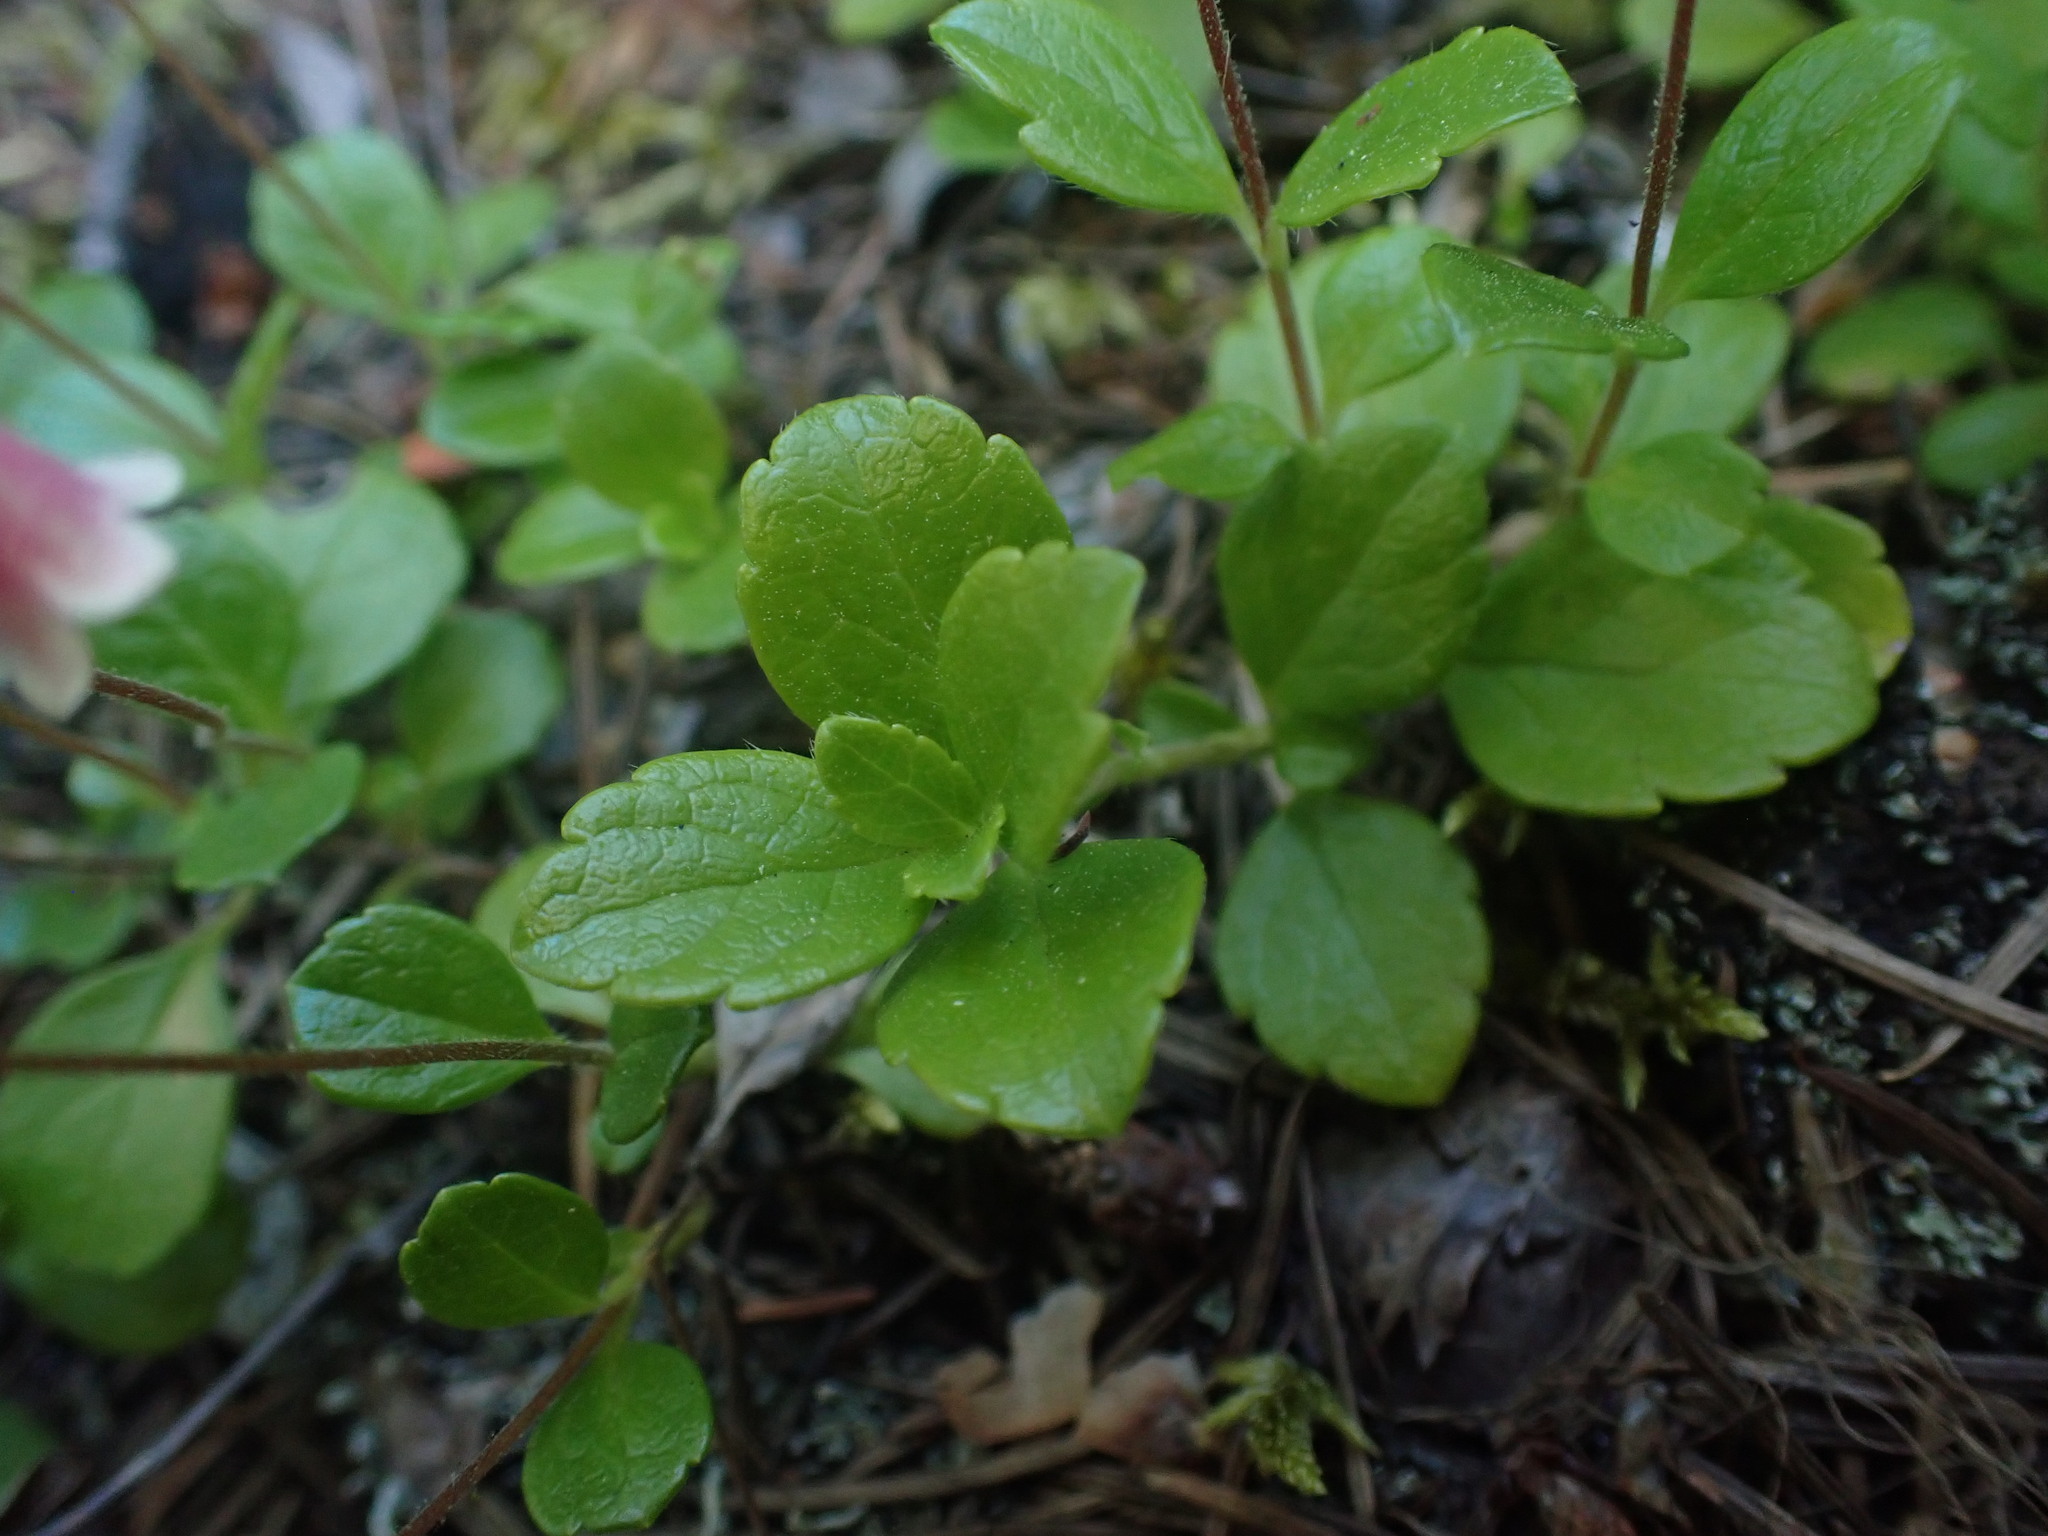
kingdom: Plantae
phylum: Tracheophyta
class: Magnoliopsida
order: Dipsacales
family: Caprifoliaceae
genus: Linnaea
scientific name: Linnaea borealis
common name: Twinflower
